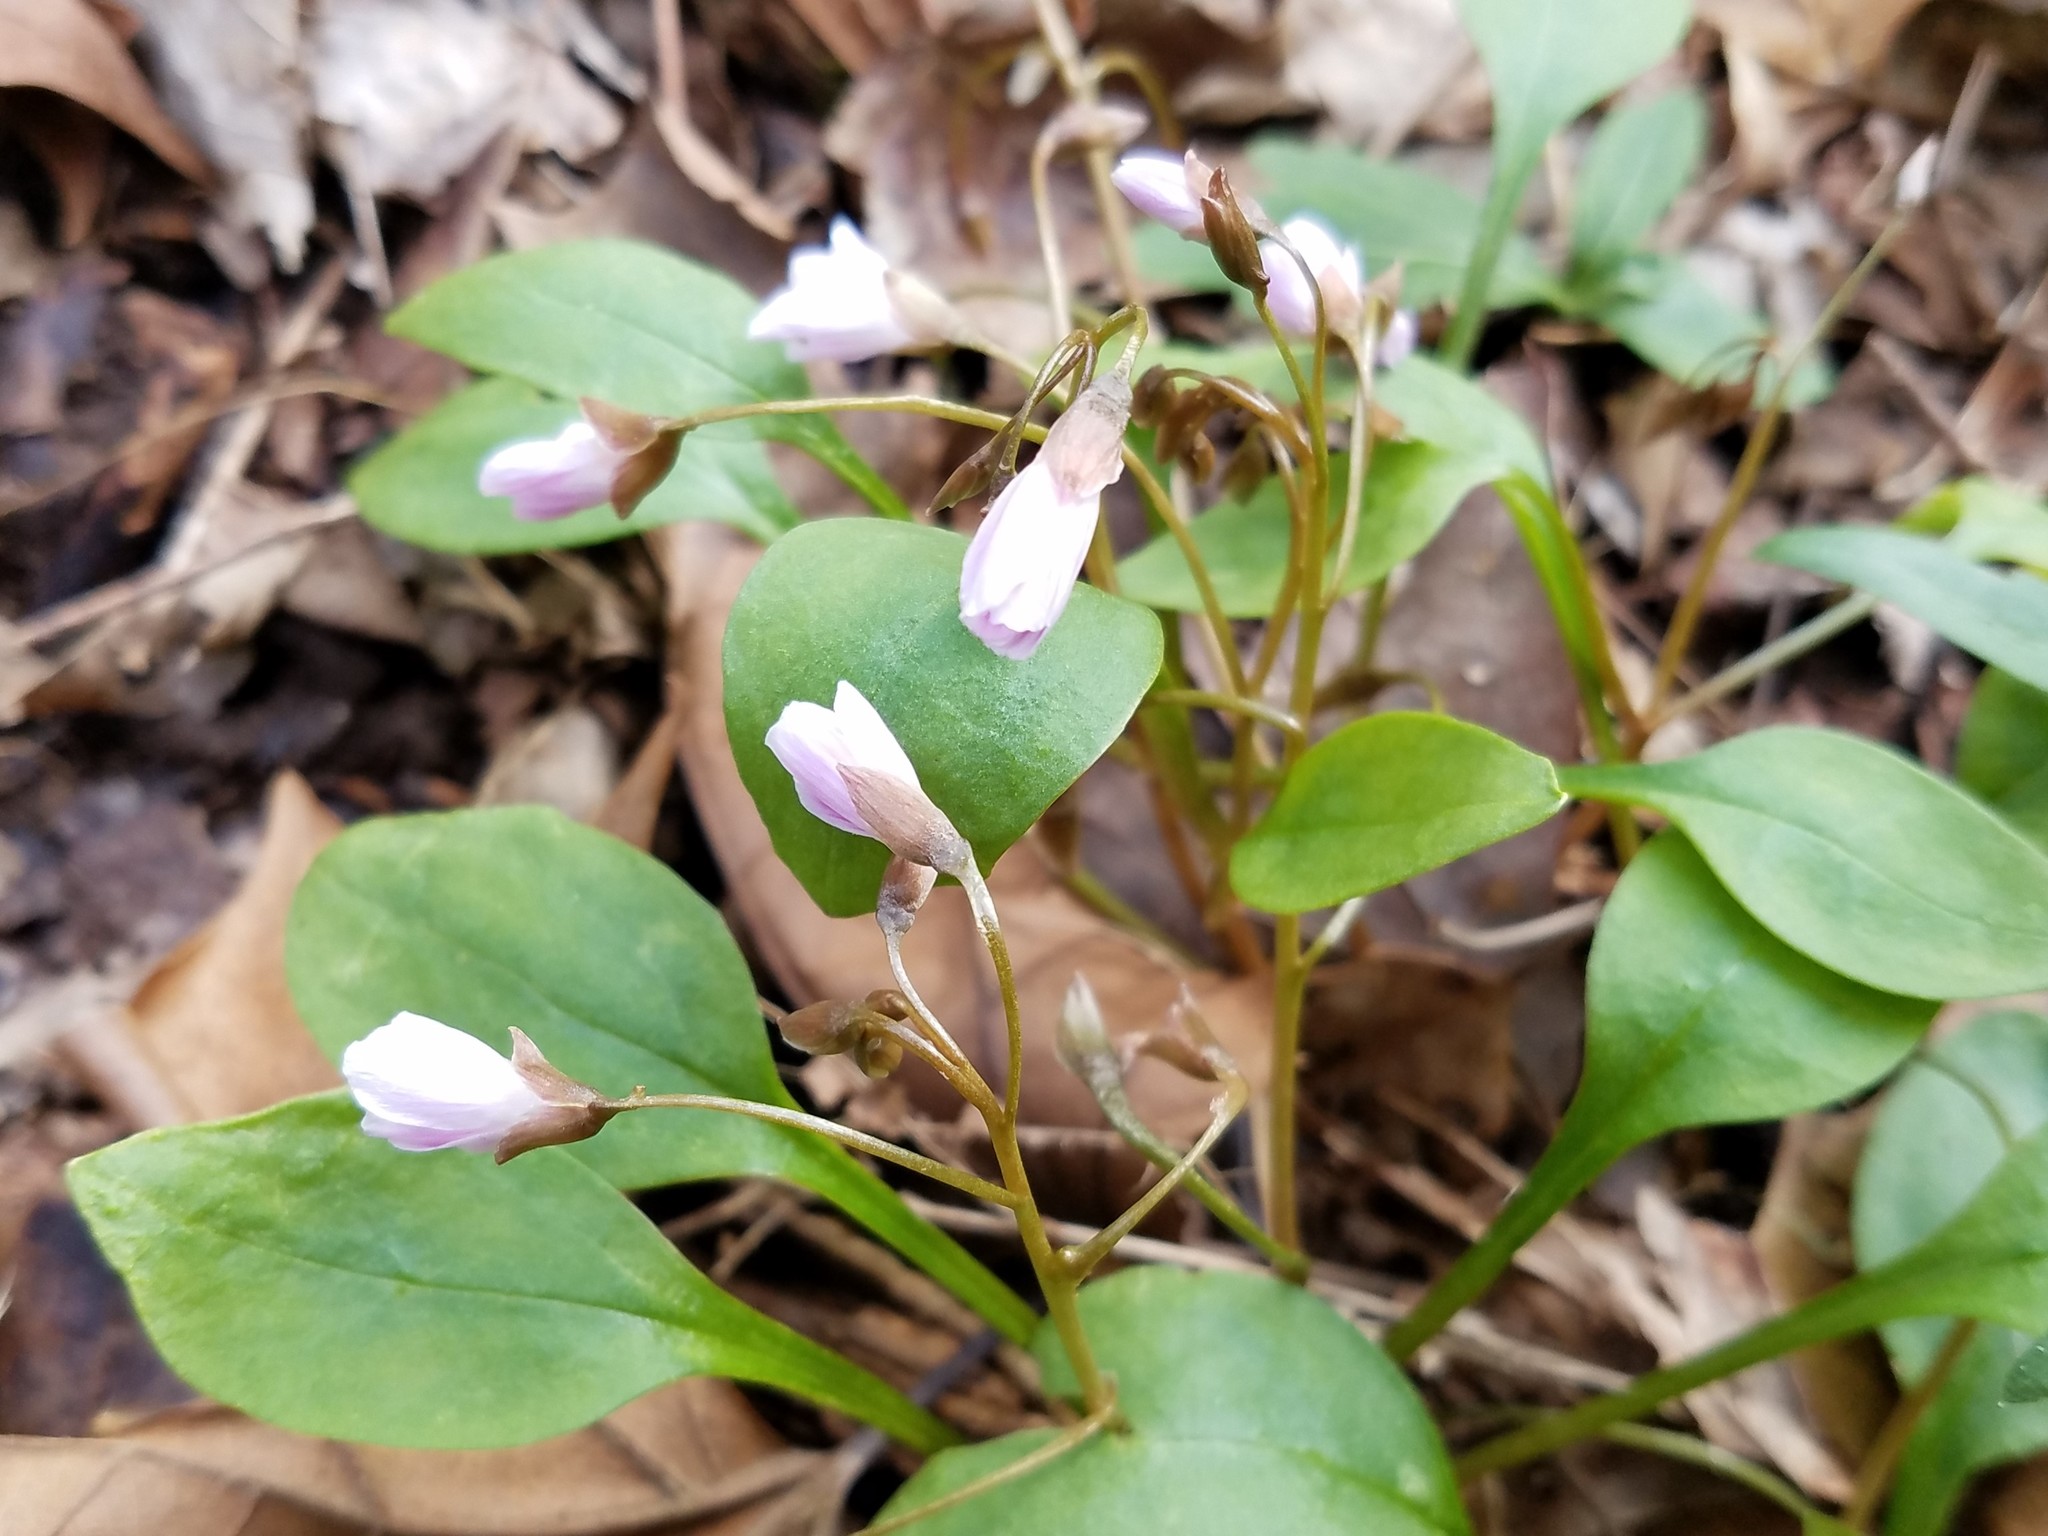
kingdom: Plantae
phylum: Tracheophyta
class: Magnoliopsida
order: Caryophyllales
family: Montiaceae
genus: Claytonia
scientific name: Claytonia caroliniana
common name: Carolina spring beauty
